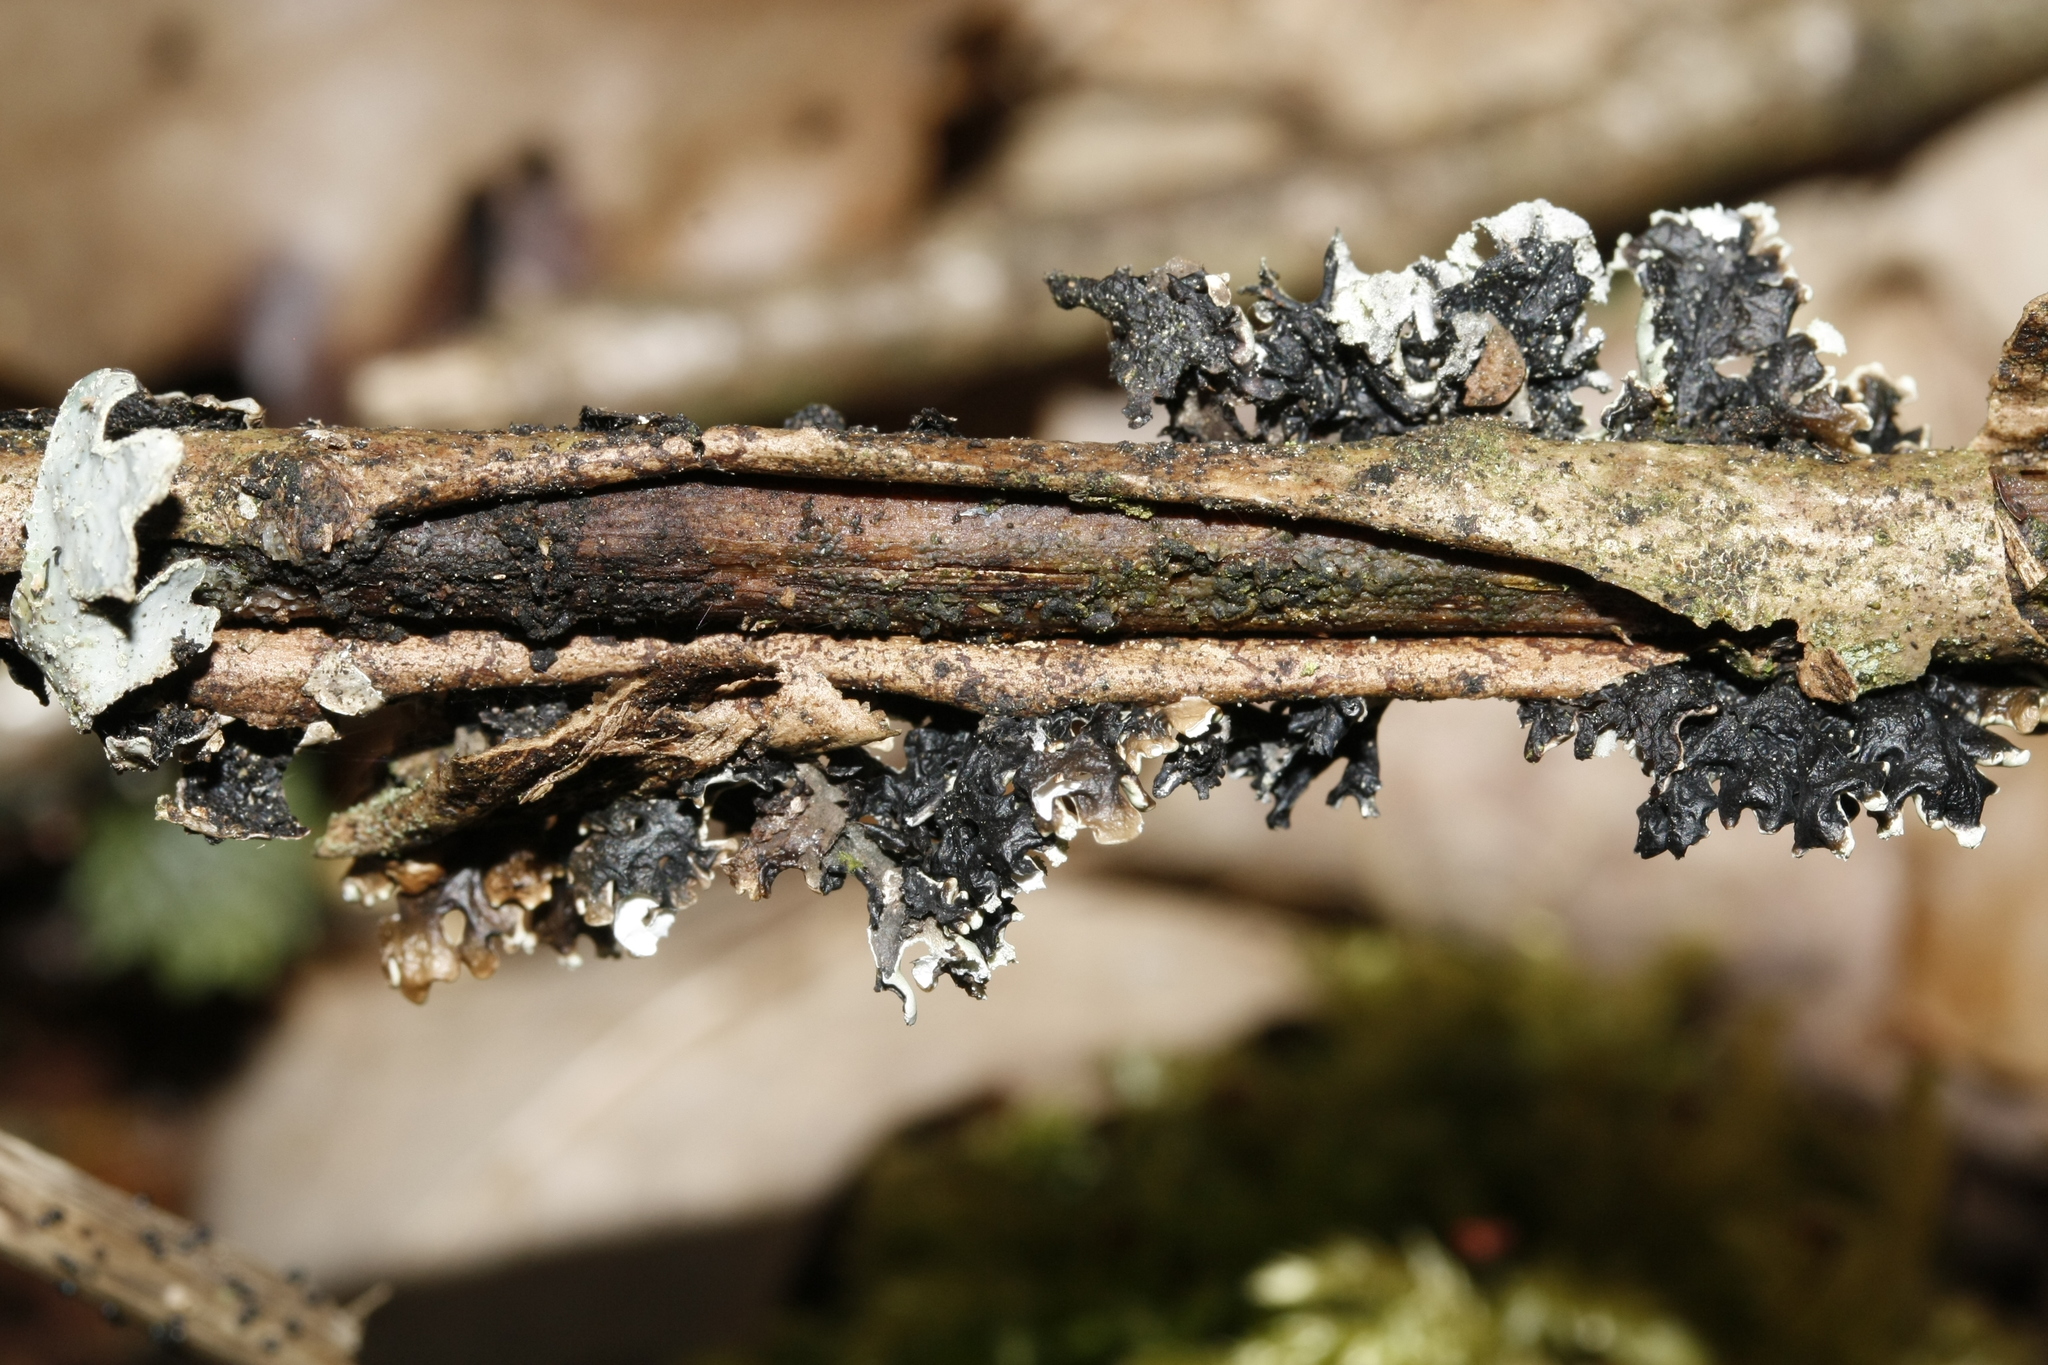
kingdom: Fungi
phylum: Ascomycota
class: Lecanoromycetes
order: Lecanorales
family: Parmeliaceae
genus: Hypogymnia
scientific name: Hypogymnia physodes
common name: Dark crottle
